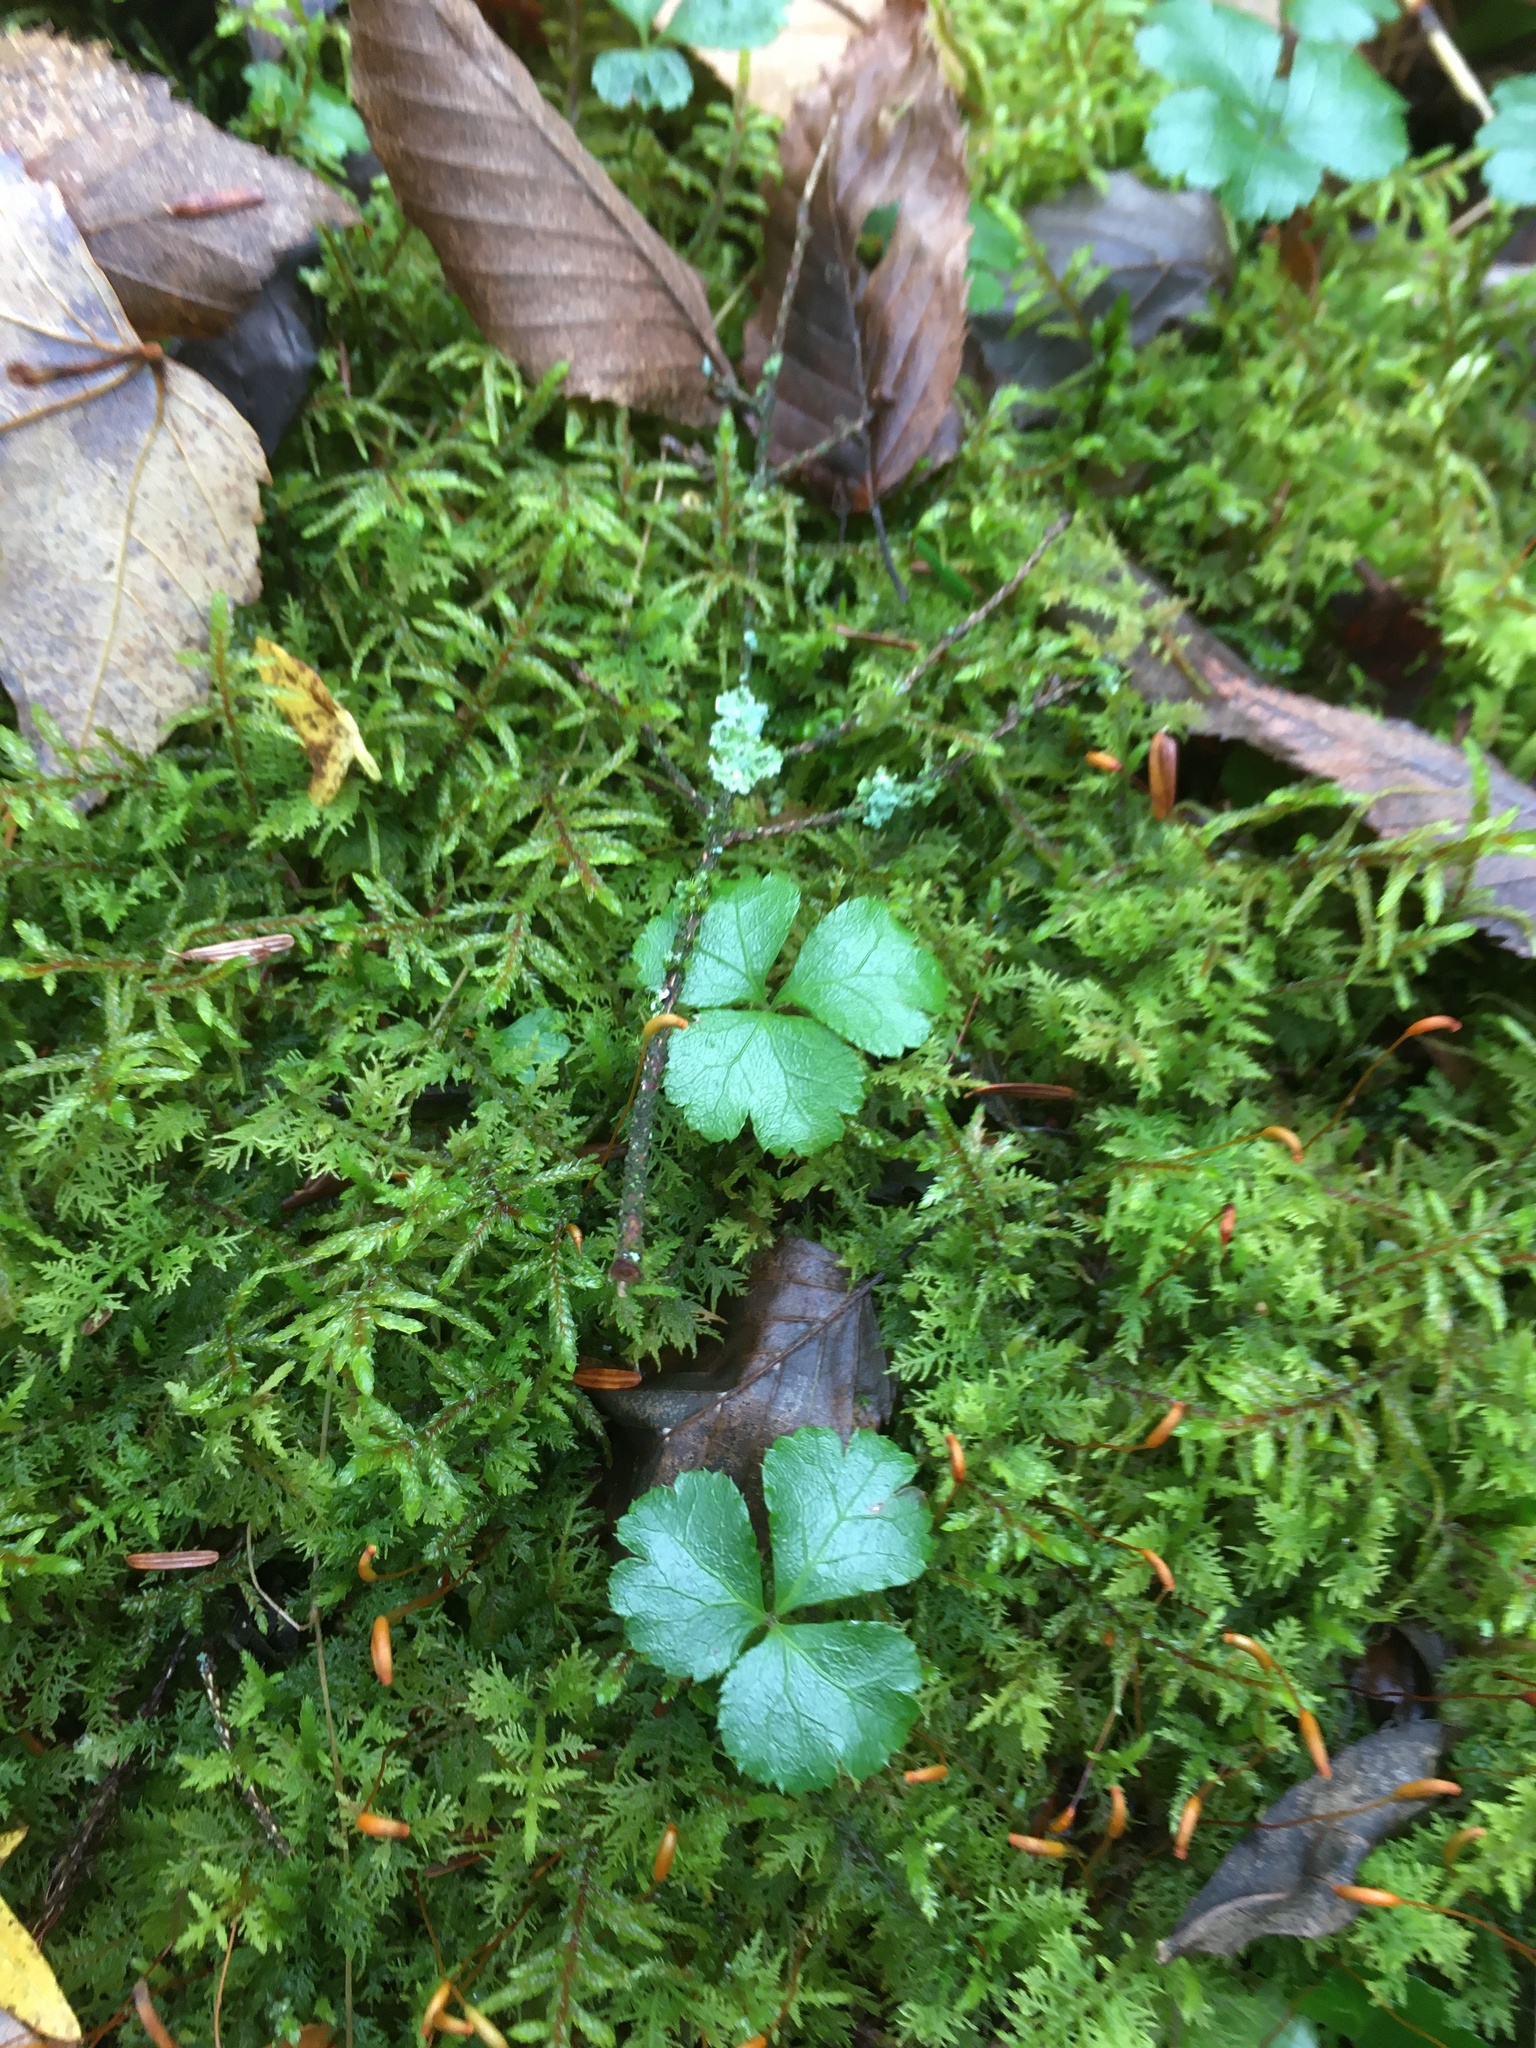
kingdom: Plantae
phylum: Tracheophyta
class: Magnoliopsida
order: Ranunculales
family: Ranunculaceae
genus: Coptis
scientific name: Coptis trifolia
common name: Canker-root
